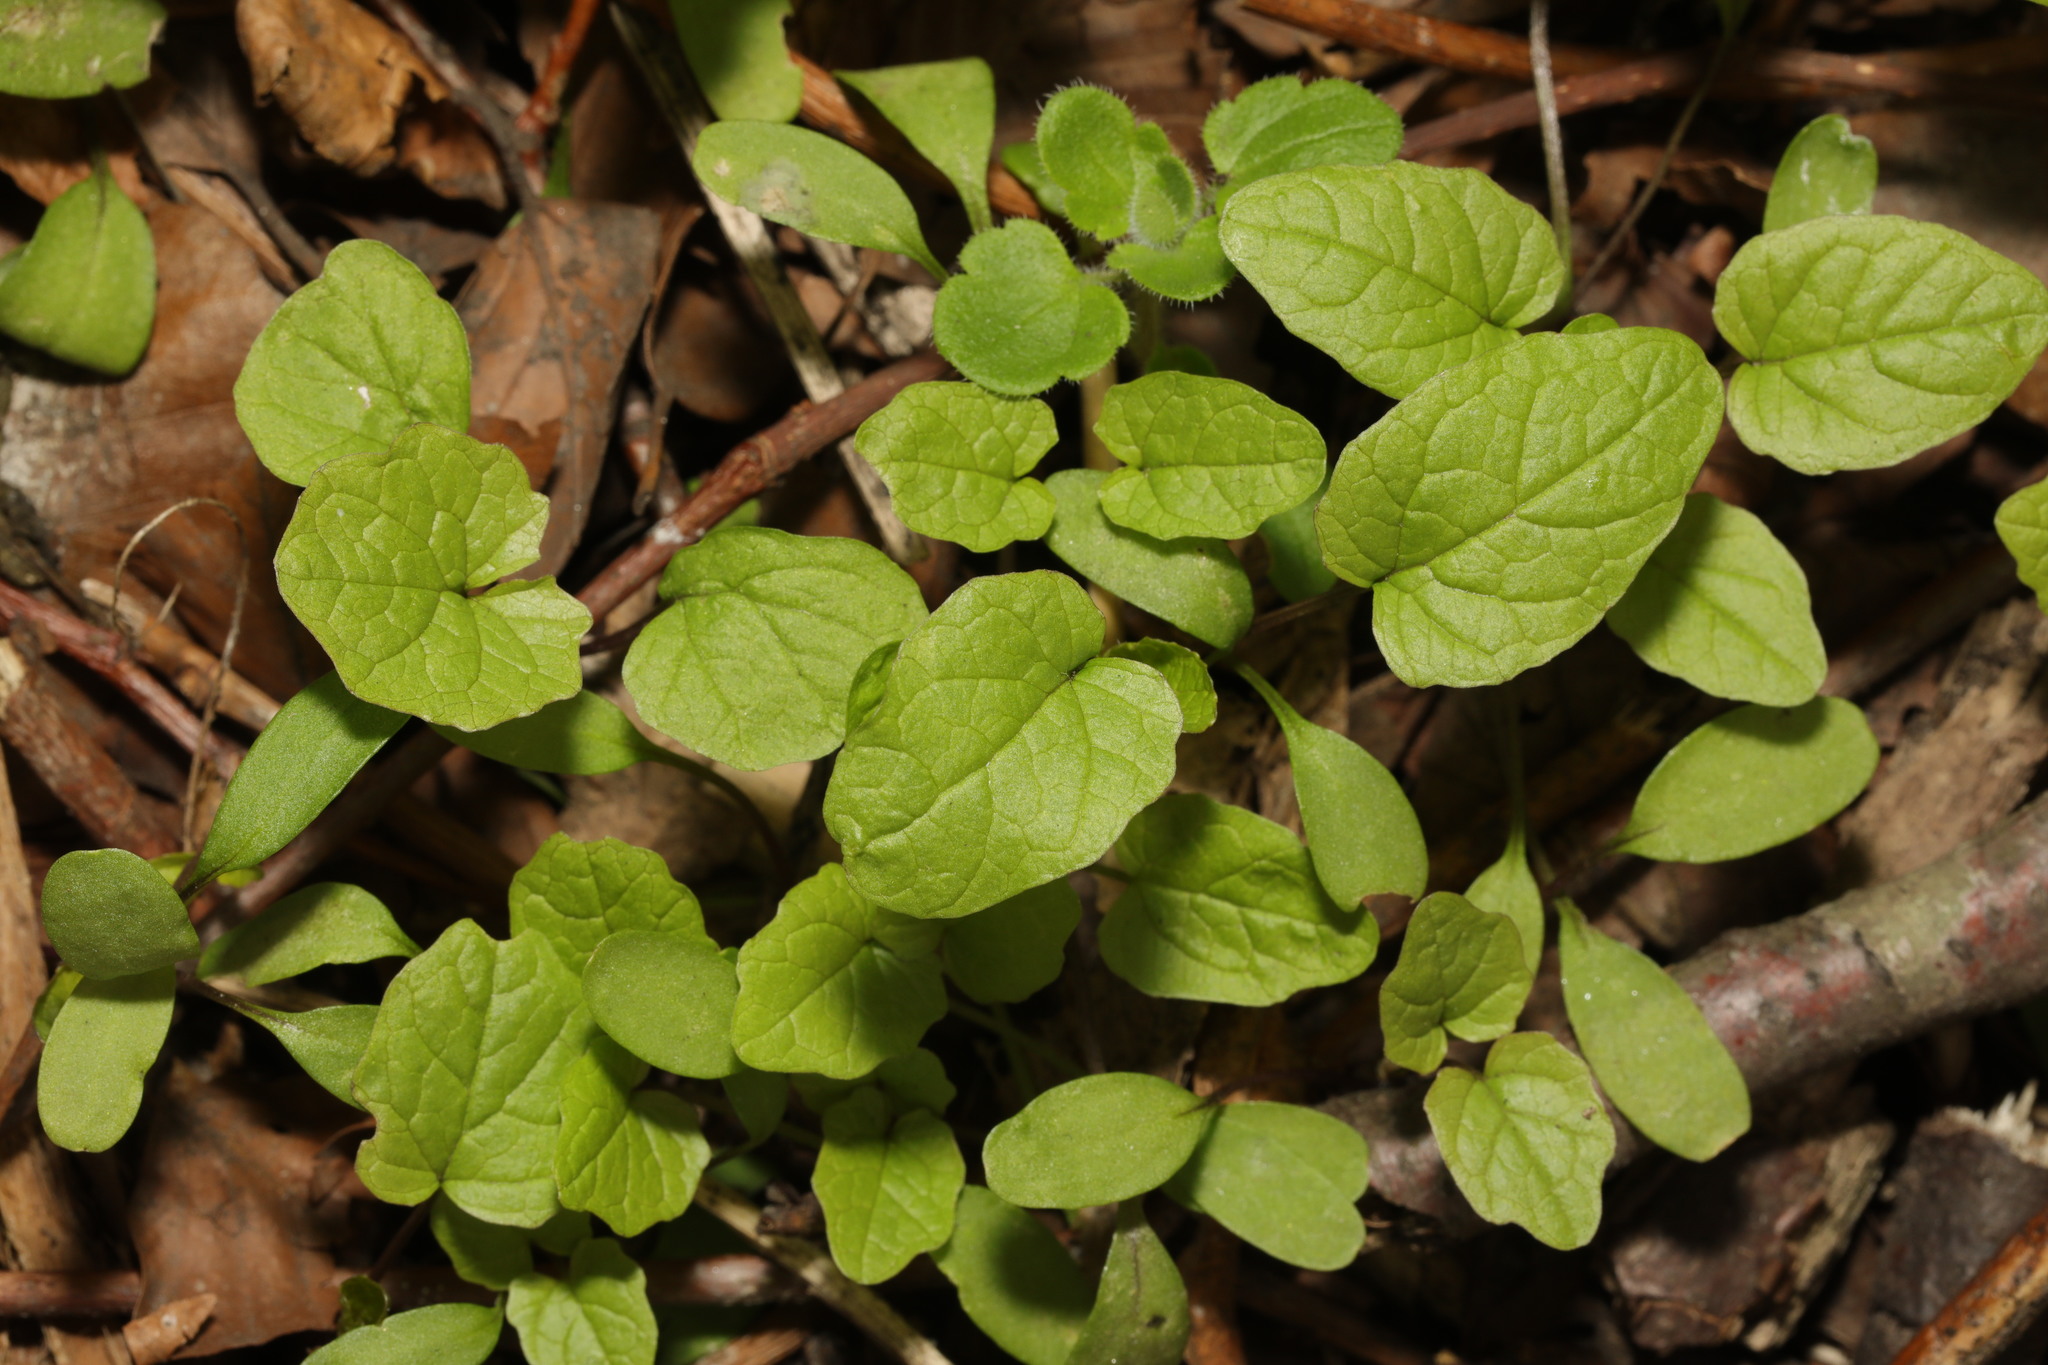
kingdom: Plantae
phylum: Tracheophyta
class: Magnoliopsida
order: Brassicales
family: Brassicaceae
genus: Alliaria
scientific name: Alliaria petiolata
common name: Garlic mustard
